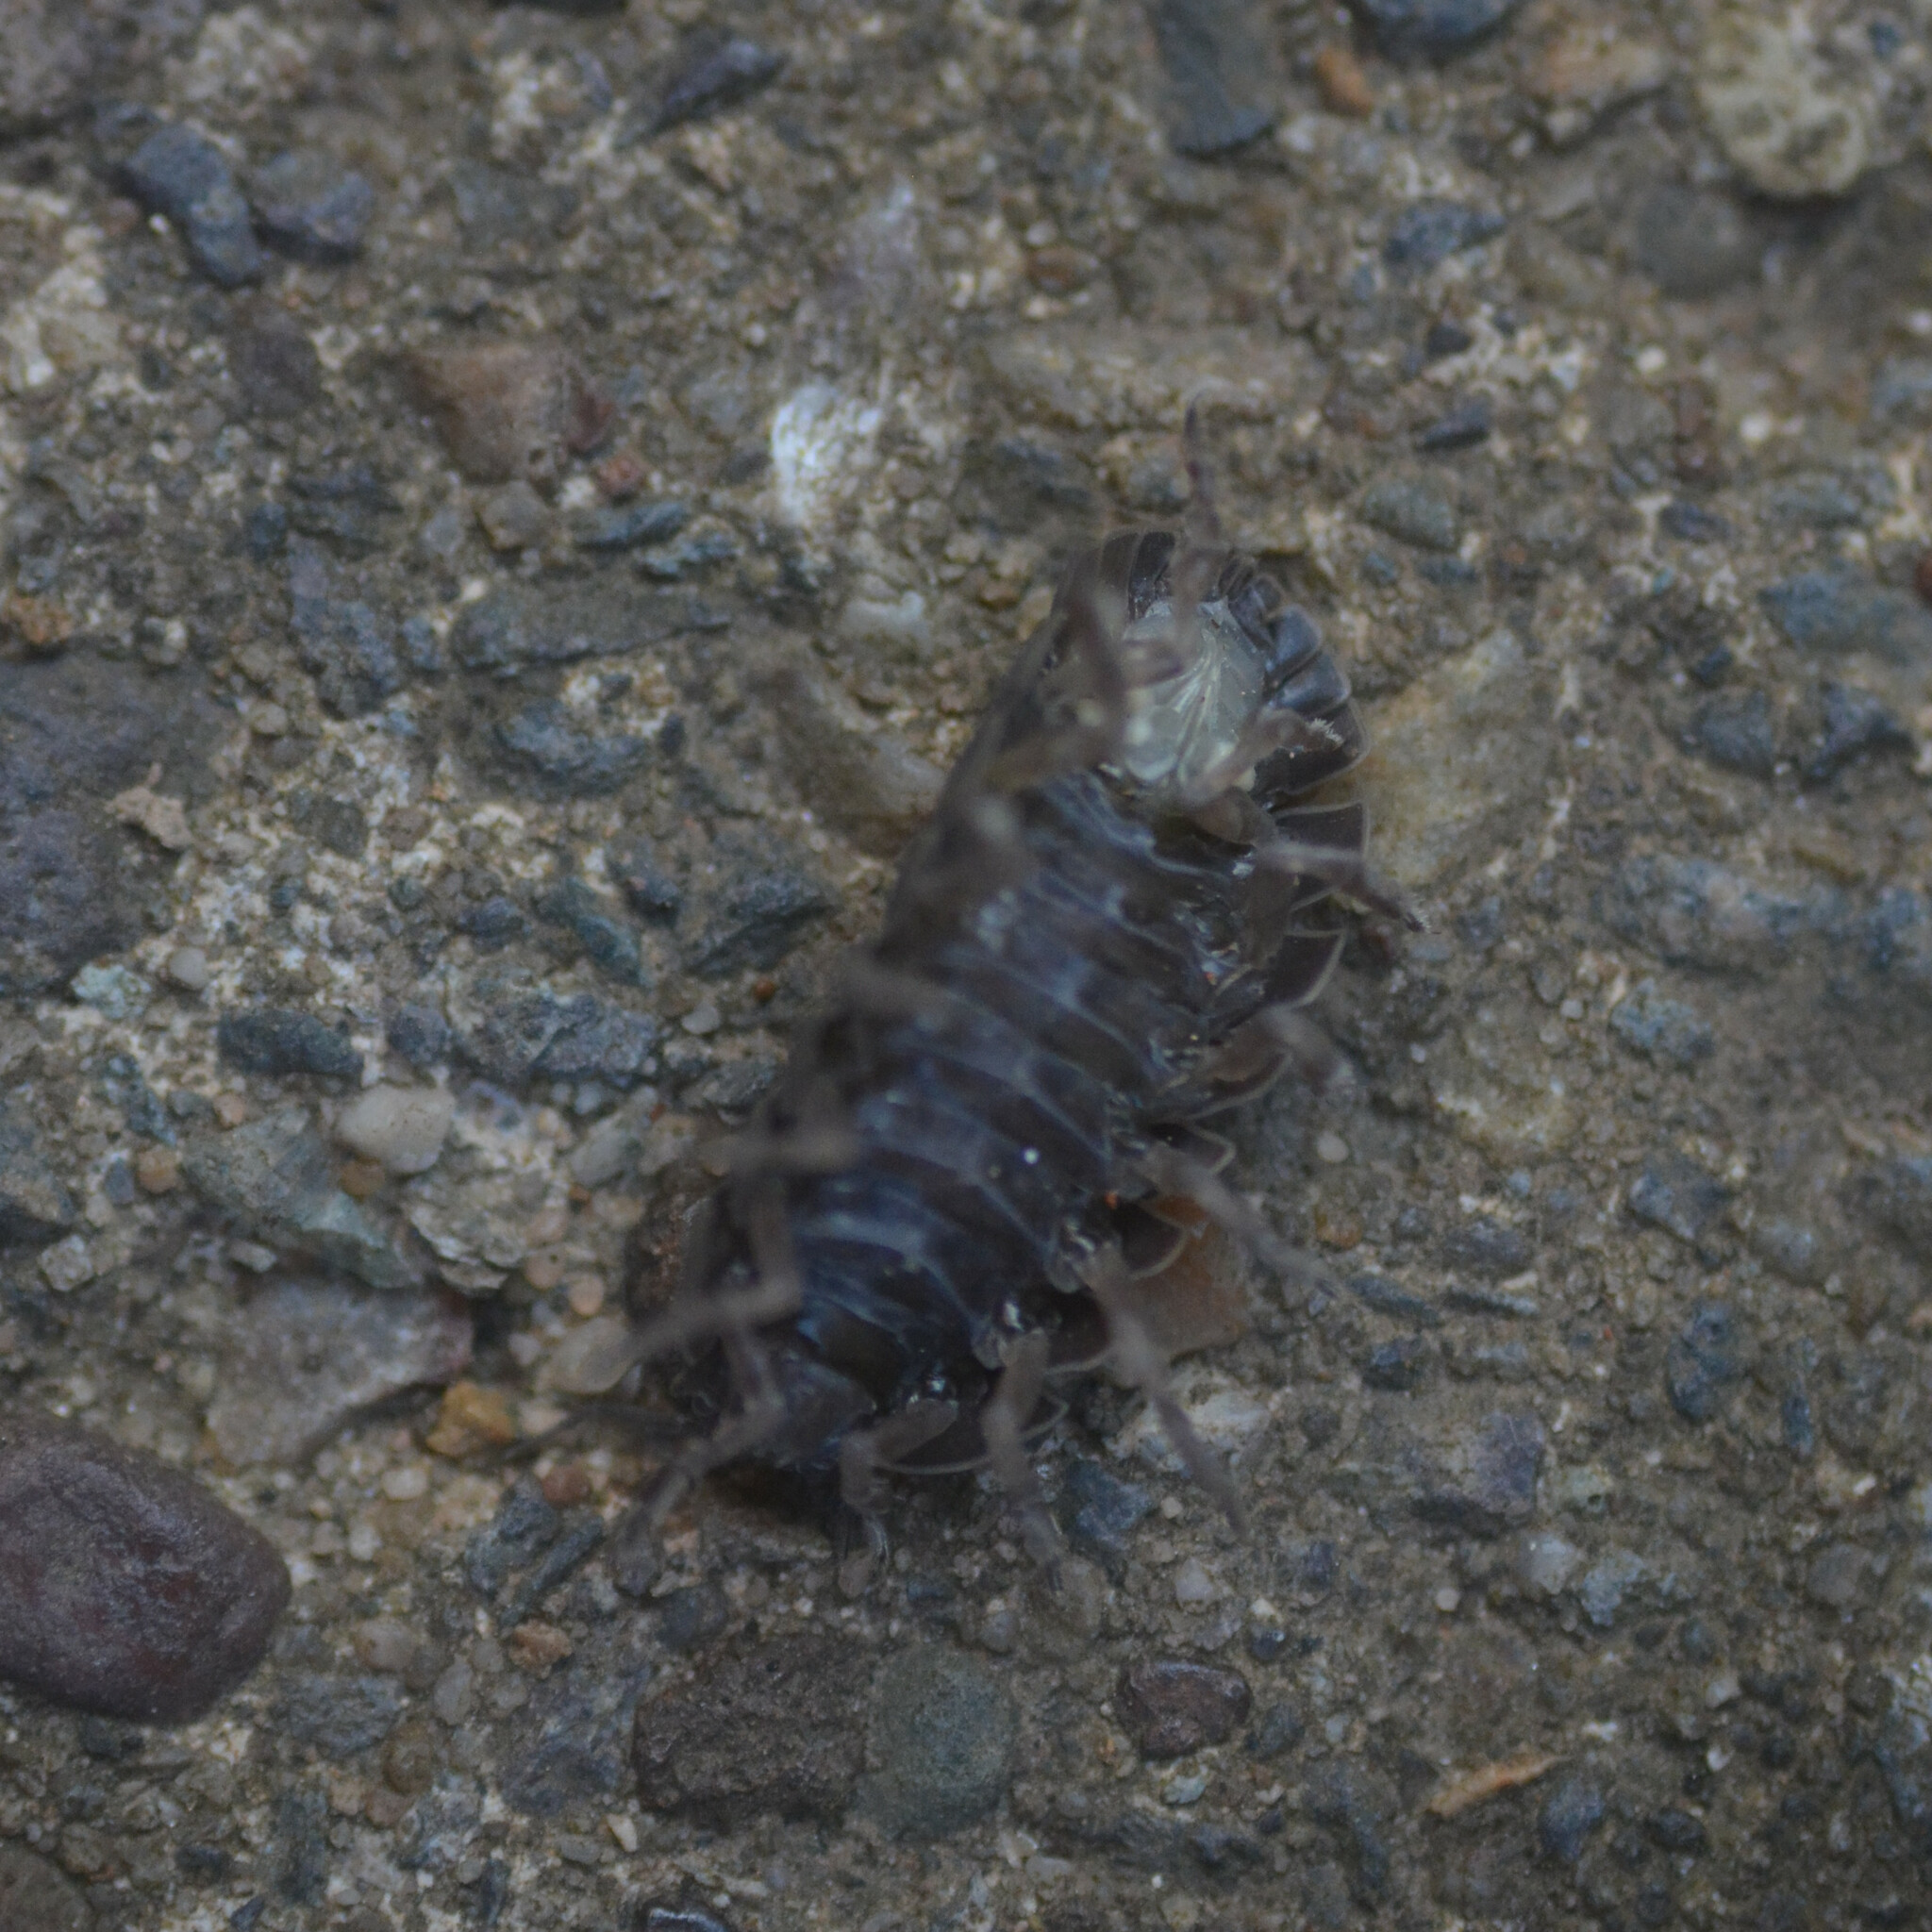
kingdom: Animalia
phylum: Arthropoda
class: Malacostraca
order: Isopoda
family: Armadillidiidae
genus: Armadillidium
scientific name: Armadillidium vulgare
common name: Common pill woodlouse
